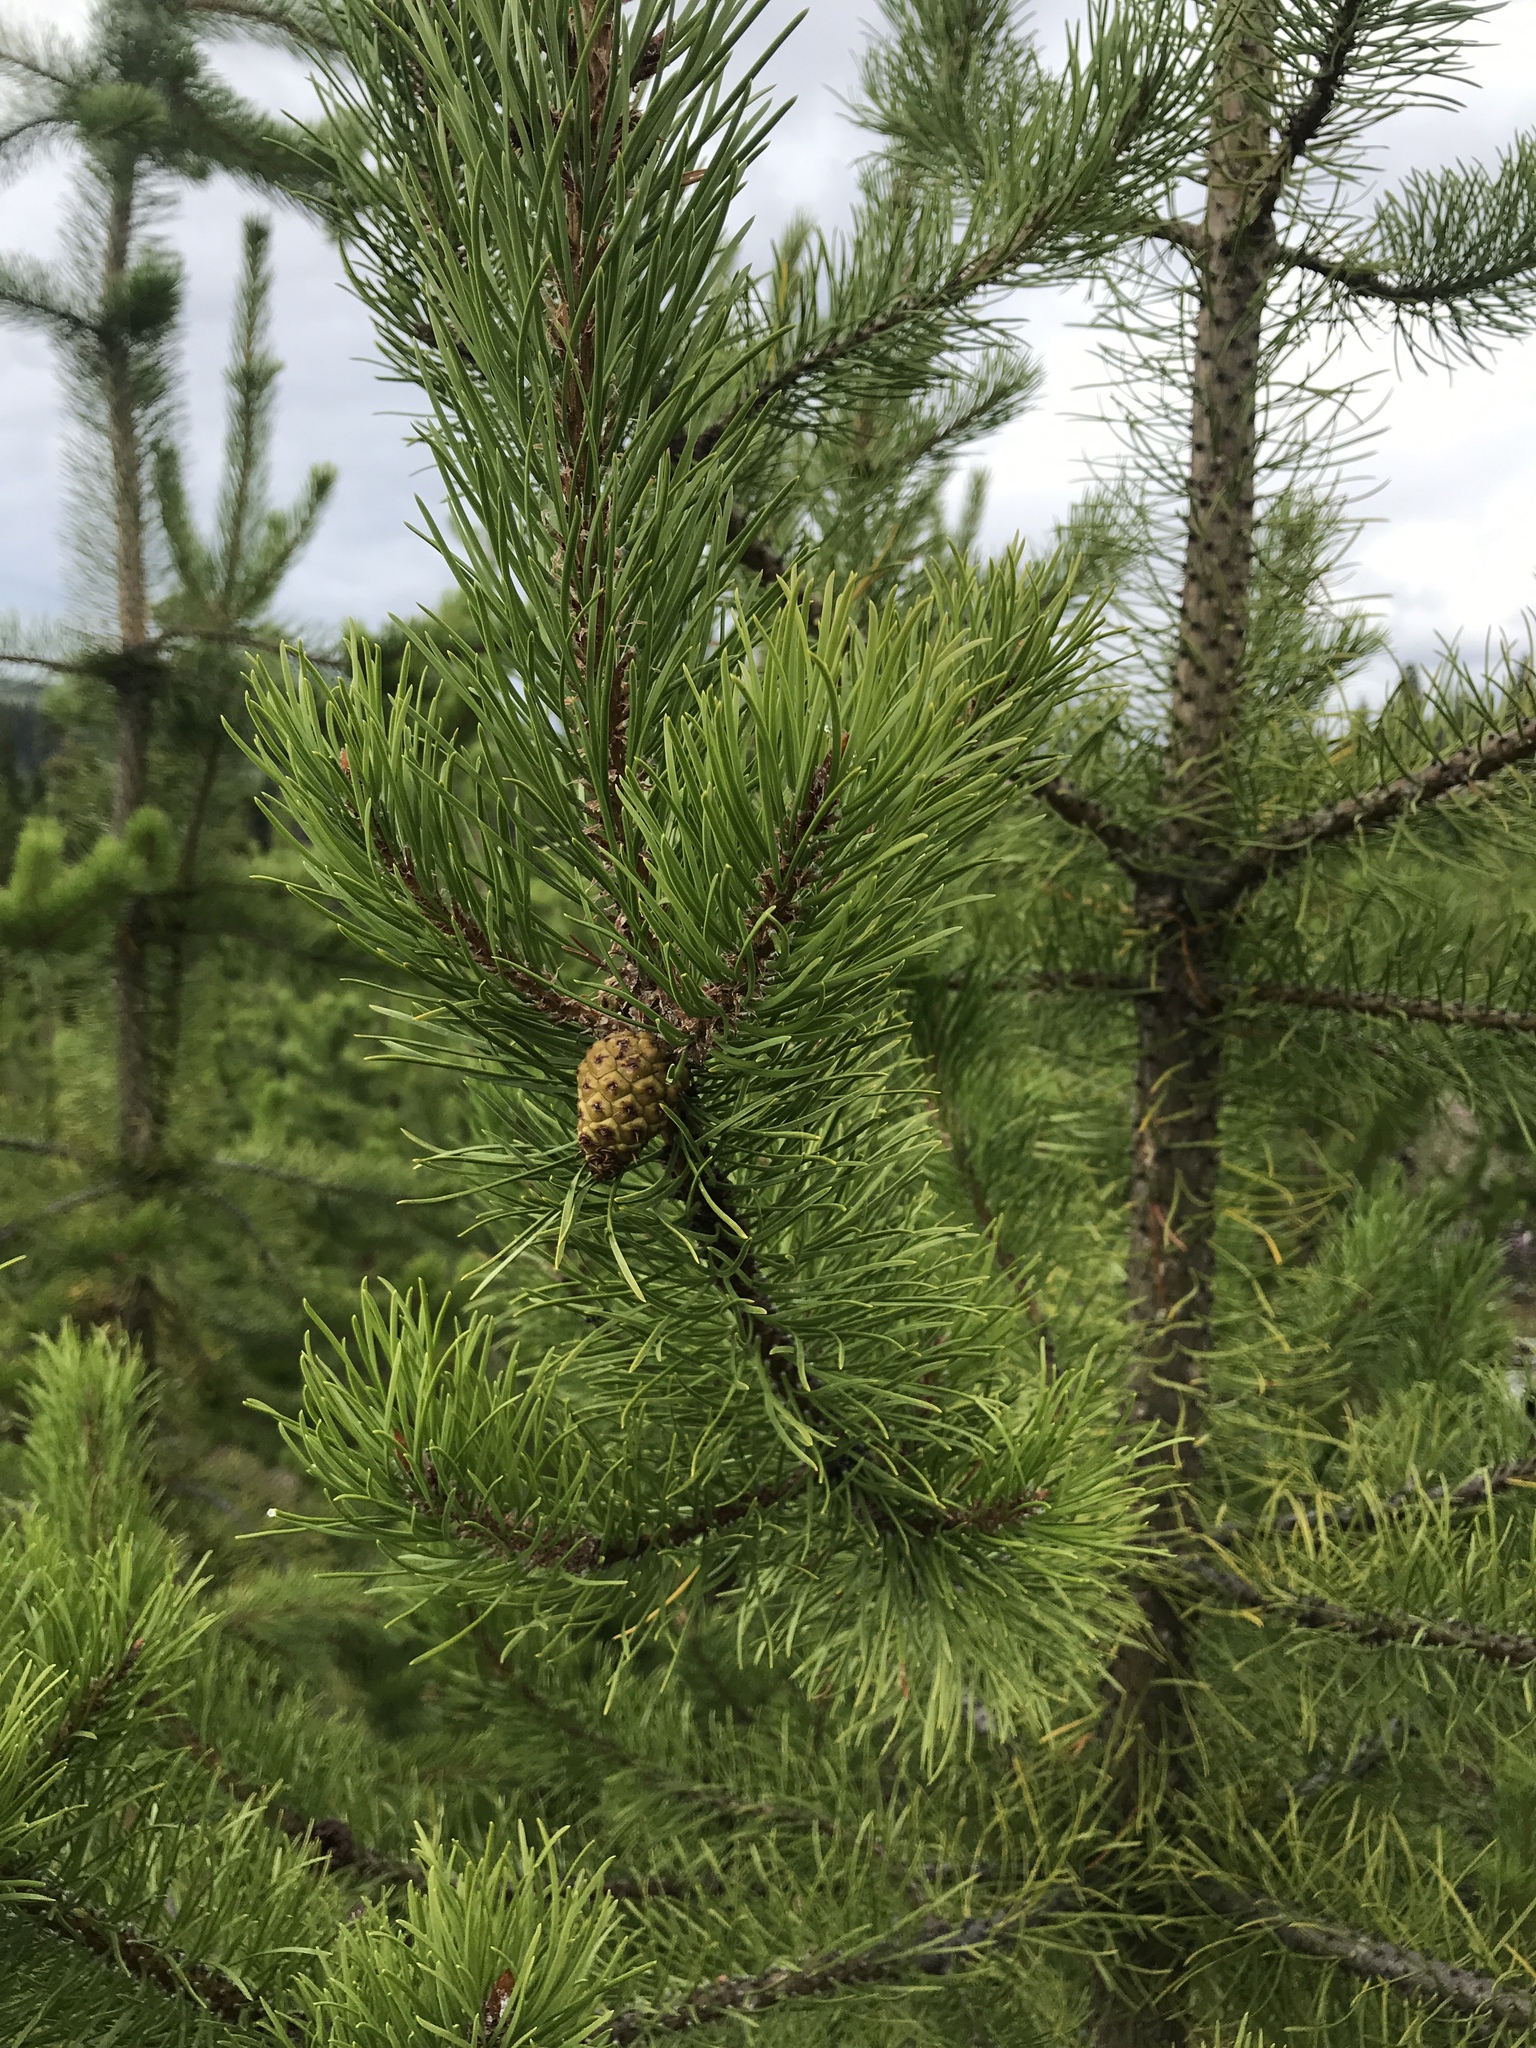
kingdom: Plantae
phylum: Tracheophyta
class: Pinopsida
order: Pinales
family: Pinaceae
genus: Pinus
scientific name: Pinus contorta
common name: Lodgepole pine
